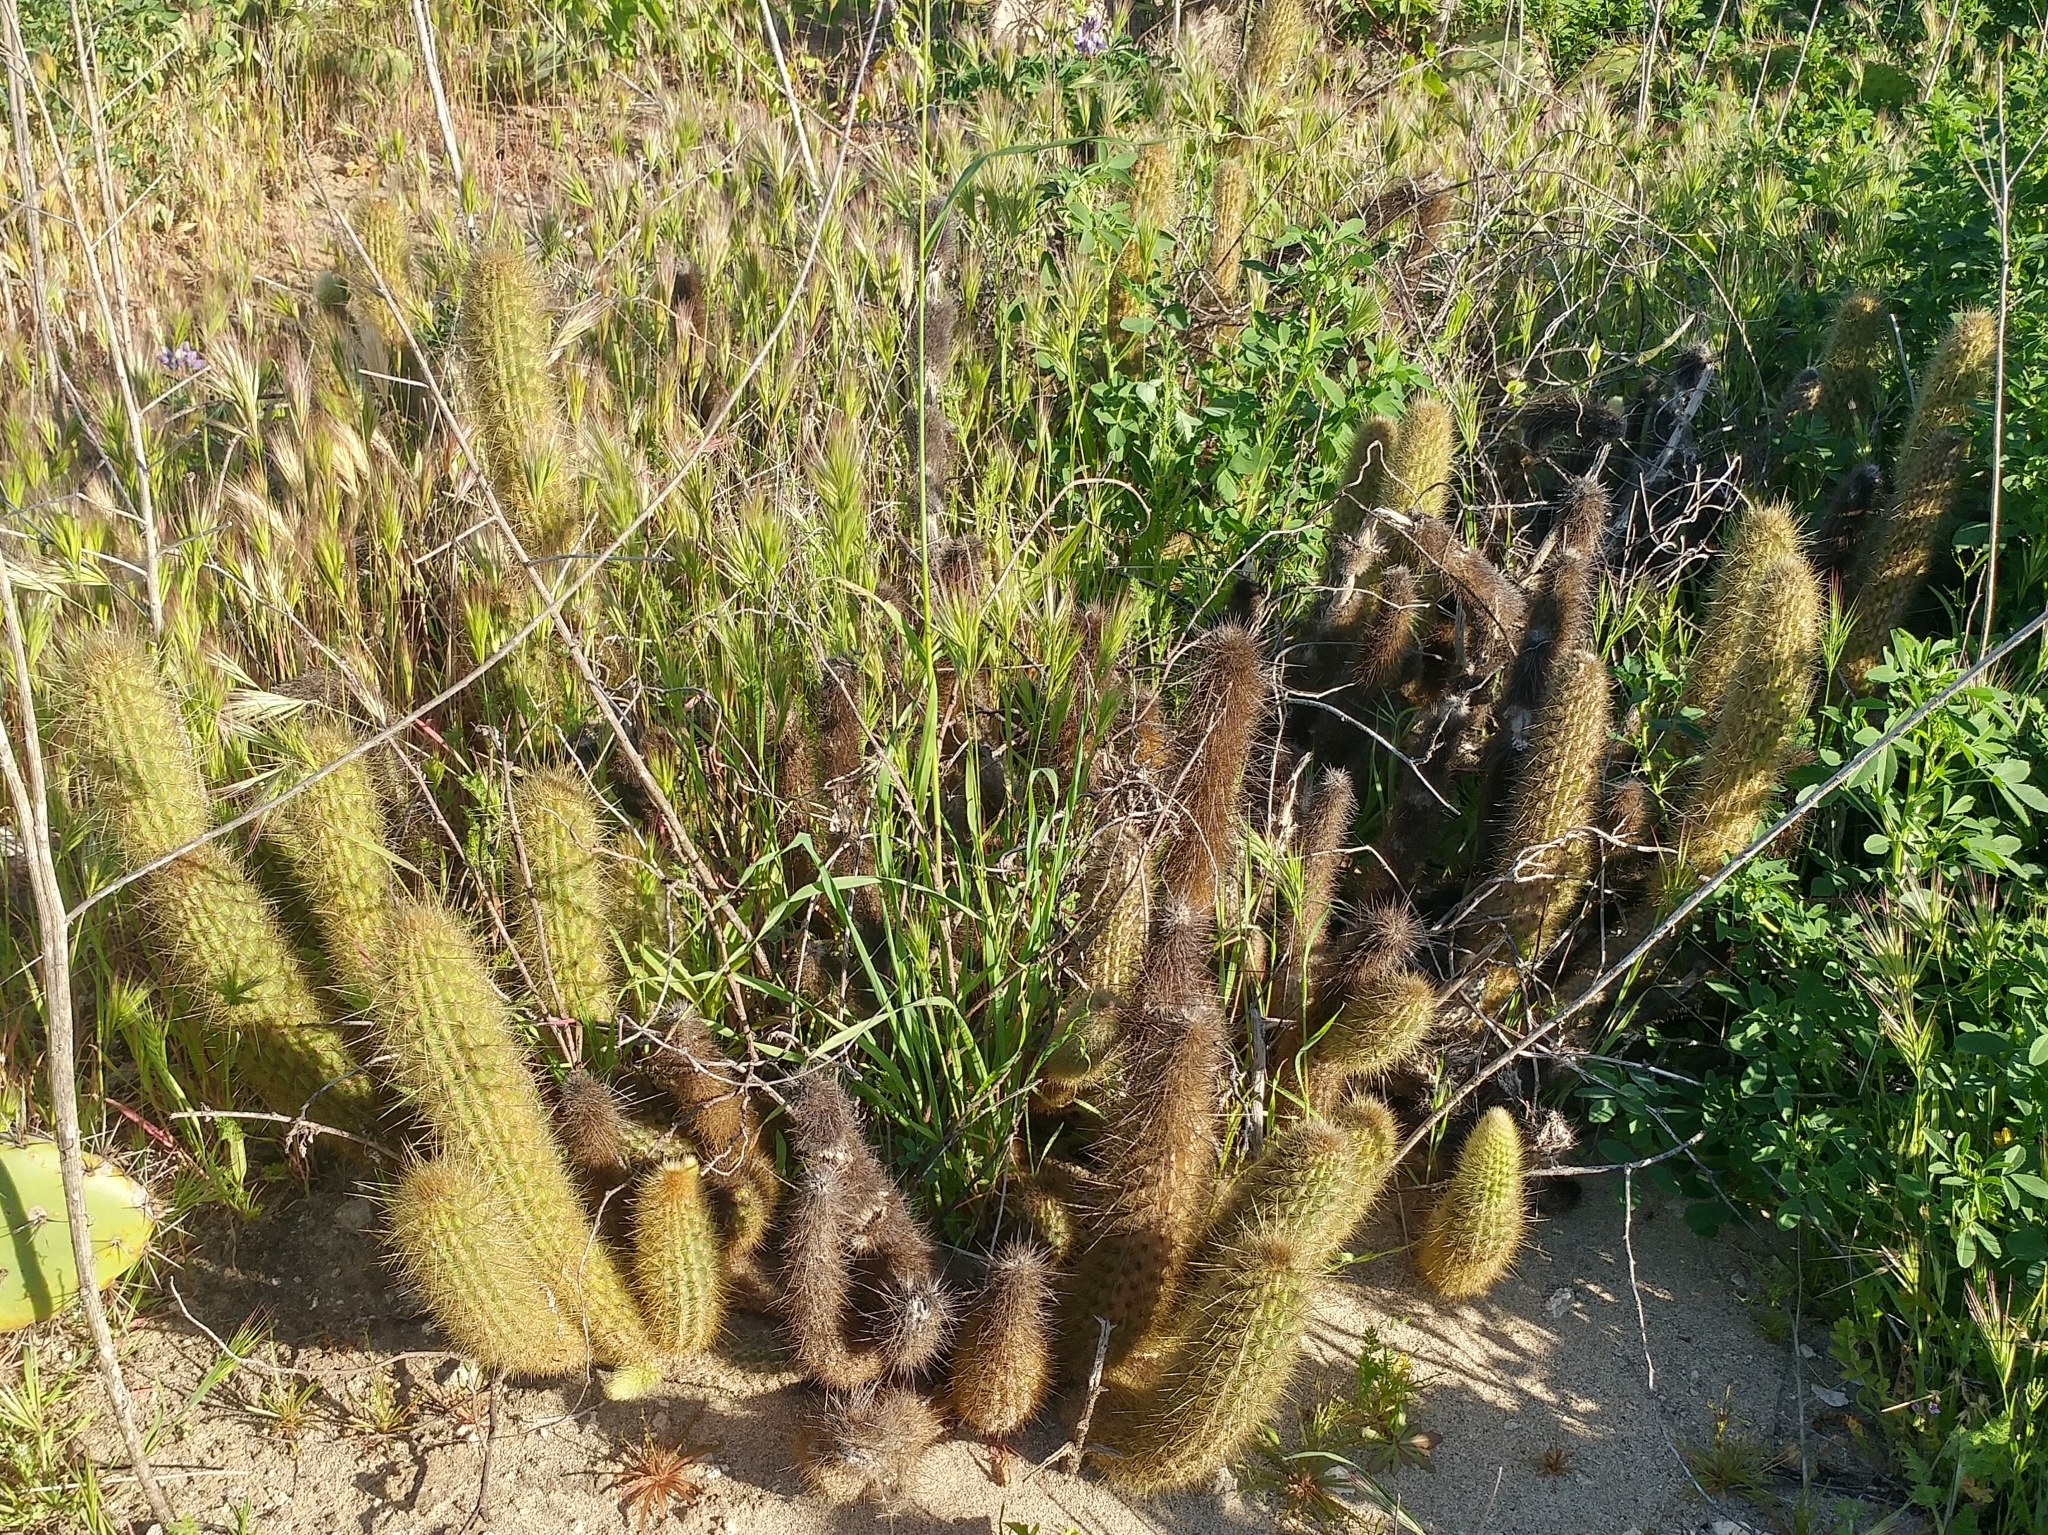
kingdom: Plantae
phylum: Tracheophyta
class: Magnoliopsida
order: Caryophyllales
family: Cactaceae
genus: Bergerocactus
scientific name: Bergerocactus emoryi
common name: Golden snakecactus
